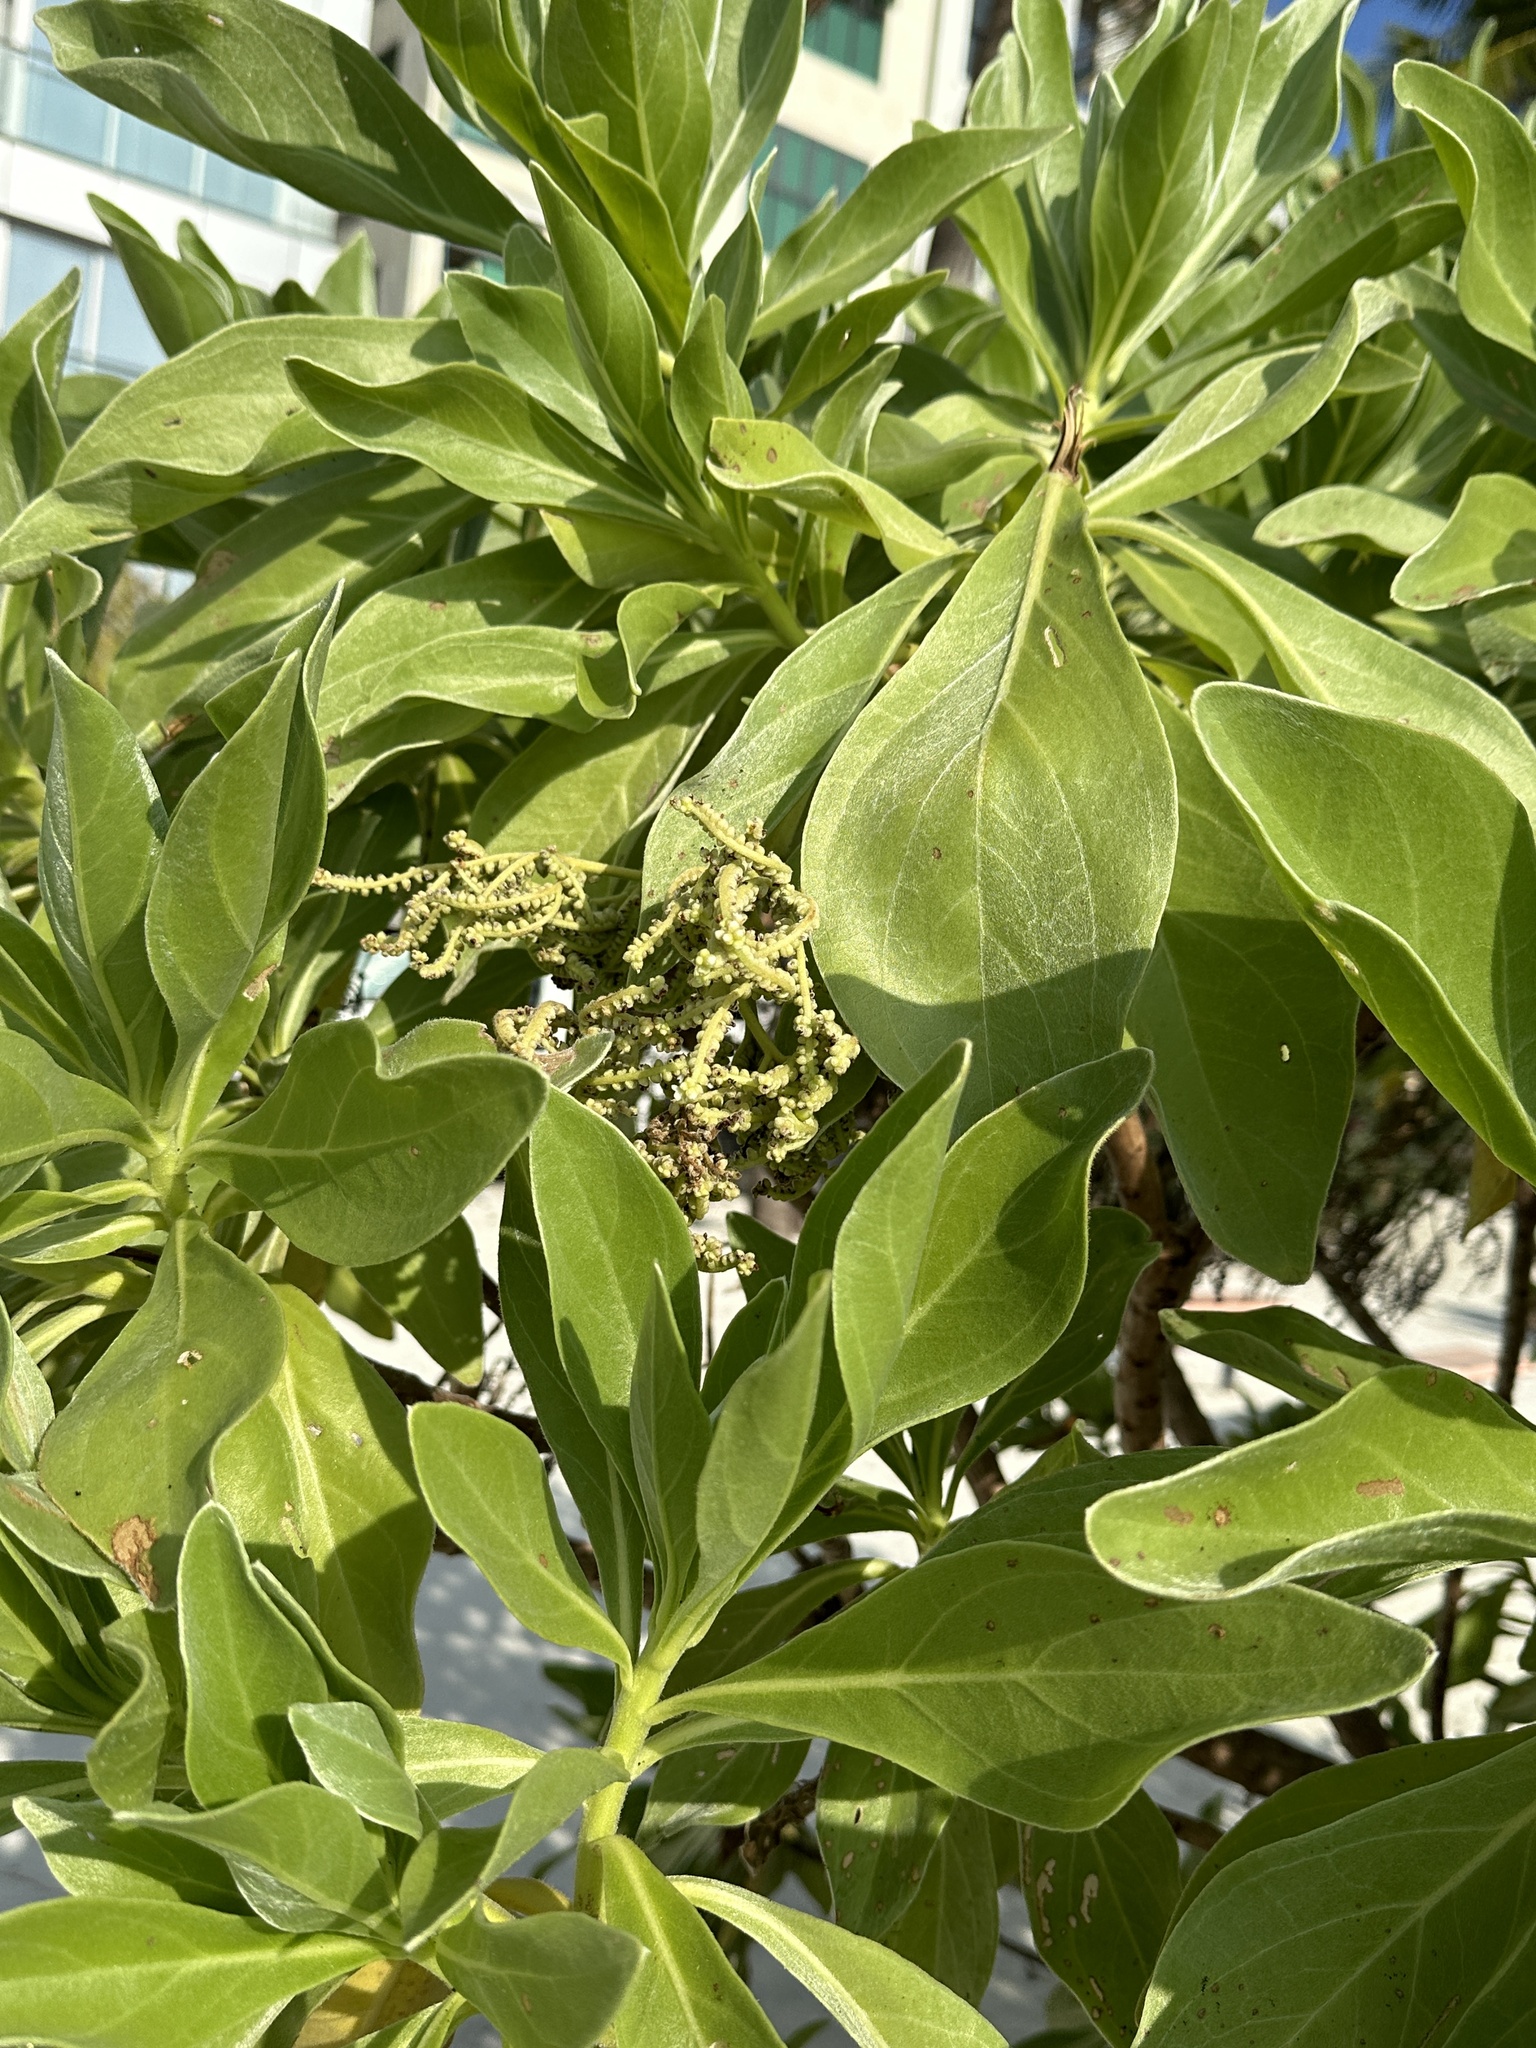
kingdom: Plantae
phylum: Tracheophyta
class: Magnoliopsida
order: Boraginales
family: Heliotropiaceae
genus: Heliotropium
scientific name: Heliotropium velutinum
